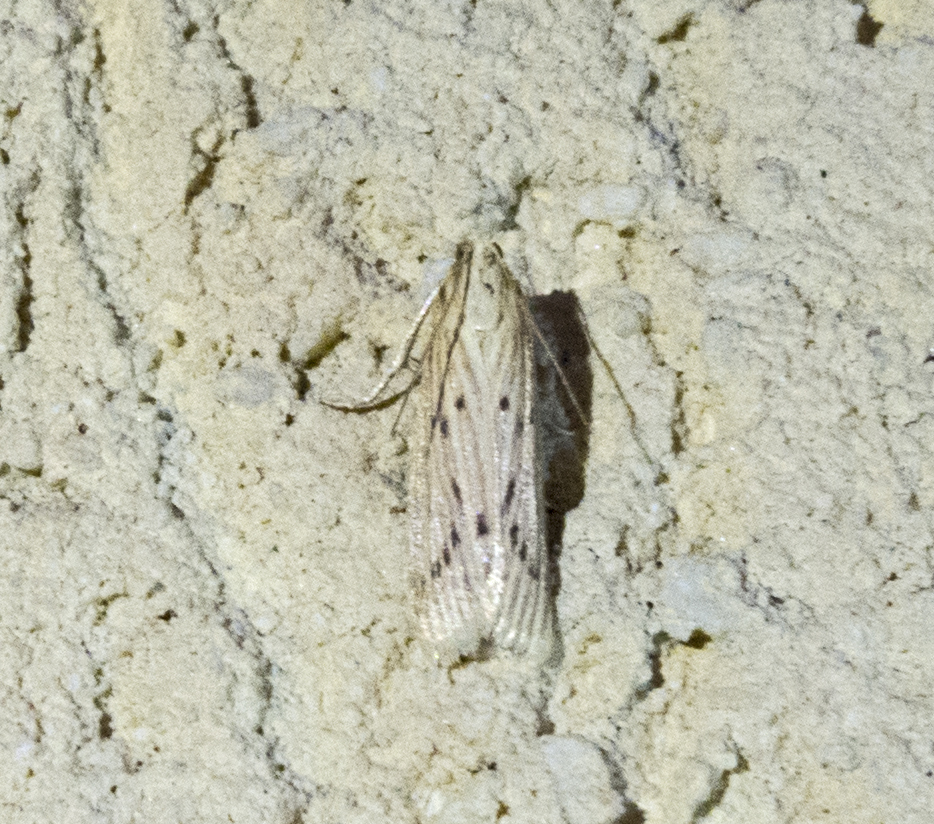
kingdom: Animalia
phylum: Arthropoda
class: Insecta
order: Lepidoptera
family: Crambidae
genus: Calamotropha
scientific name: Calamotropha paludella
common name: Bulrush veneer
